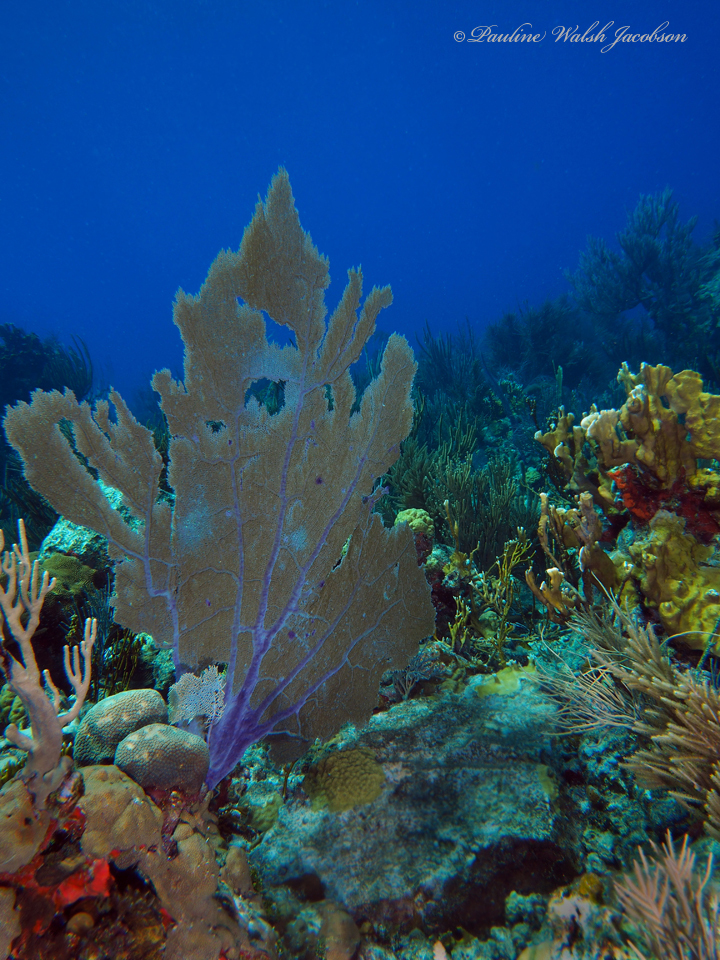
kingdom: Animalia
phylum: Cnidaria
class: Anthozoa
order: Malacalcyonacea
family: Gorgoniidae
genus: Gorgonia
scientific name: Gorgonia ventalina
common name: Common sea fan
